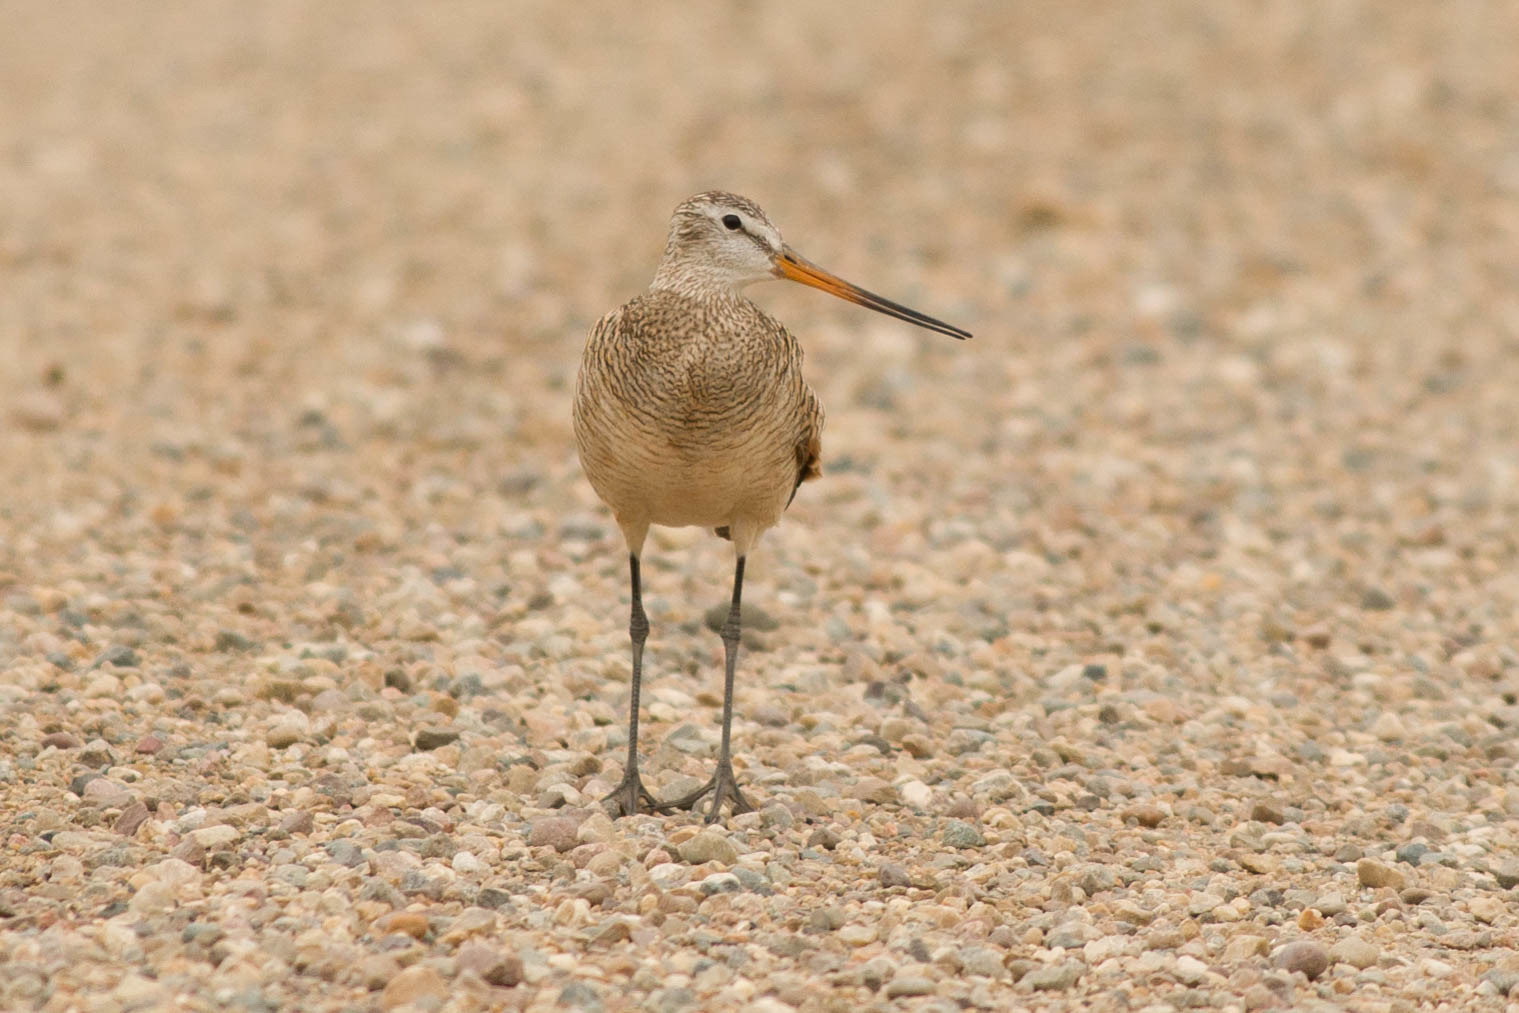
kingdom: Animalia
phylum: Chordata
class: Aves
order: Charadriiformes
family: Scolopacidae
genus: Limosa
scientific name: Limosa fedoa
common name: Marbled godwit
